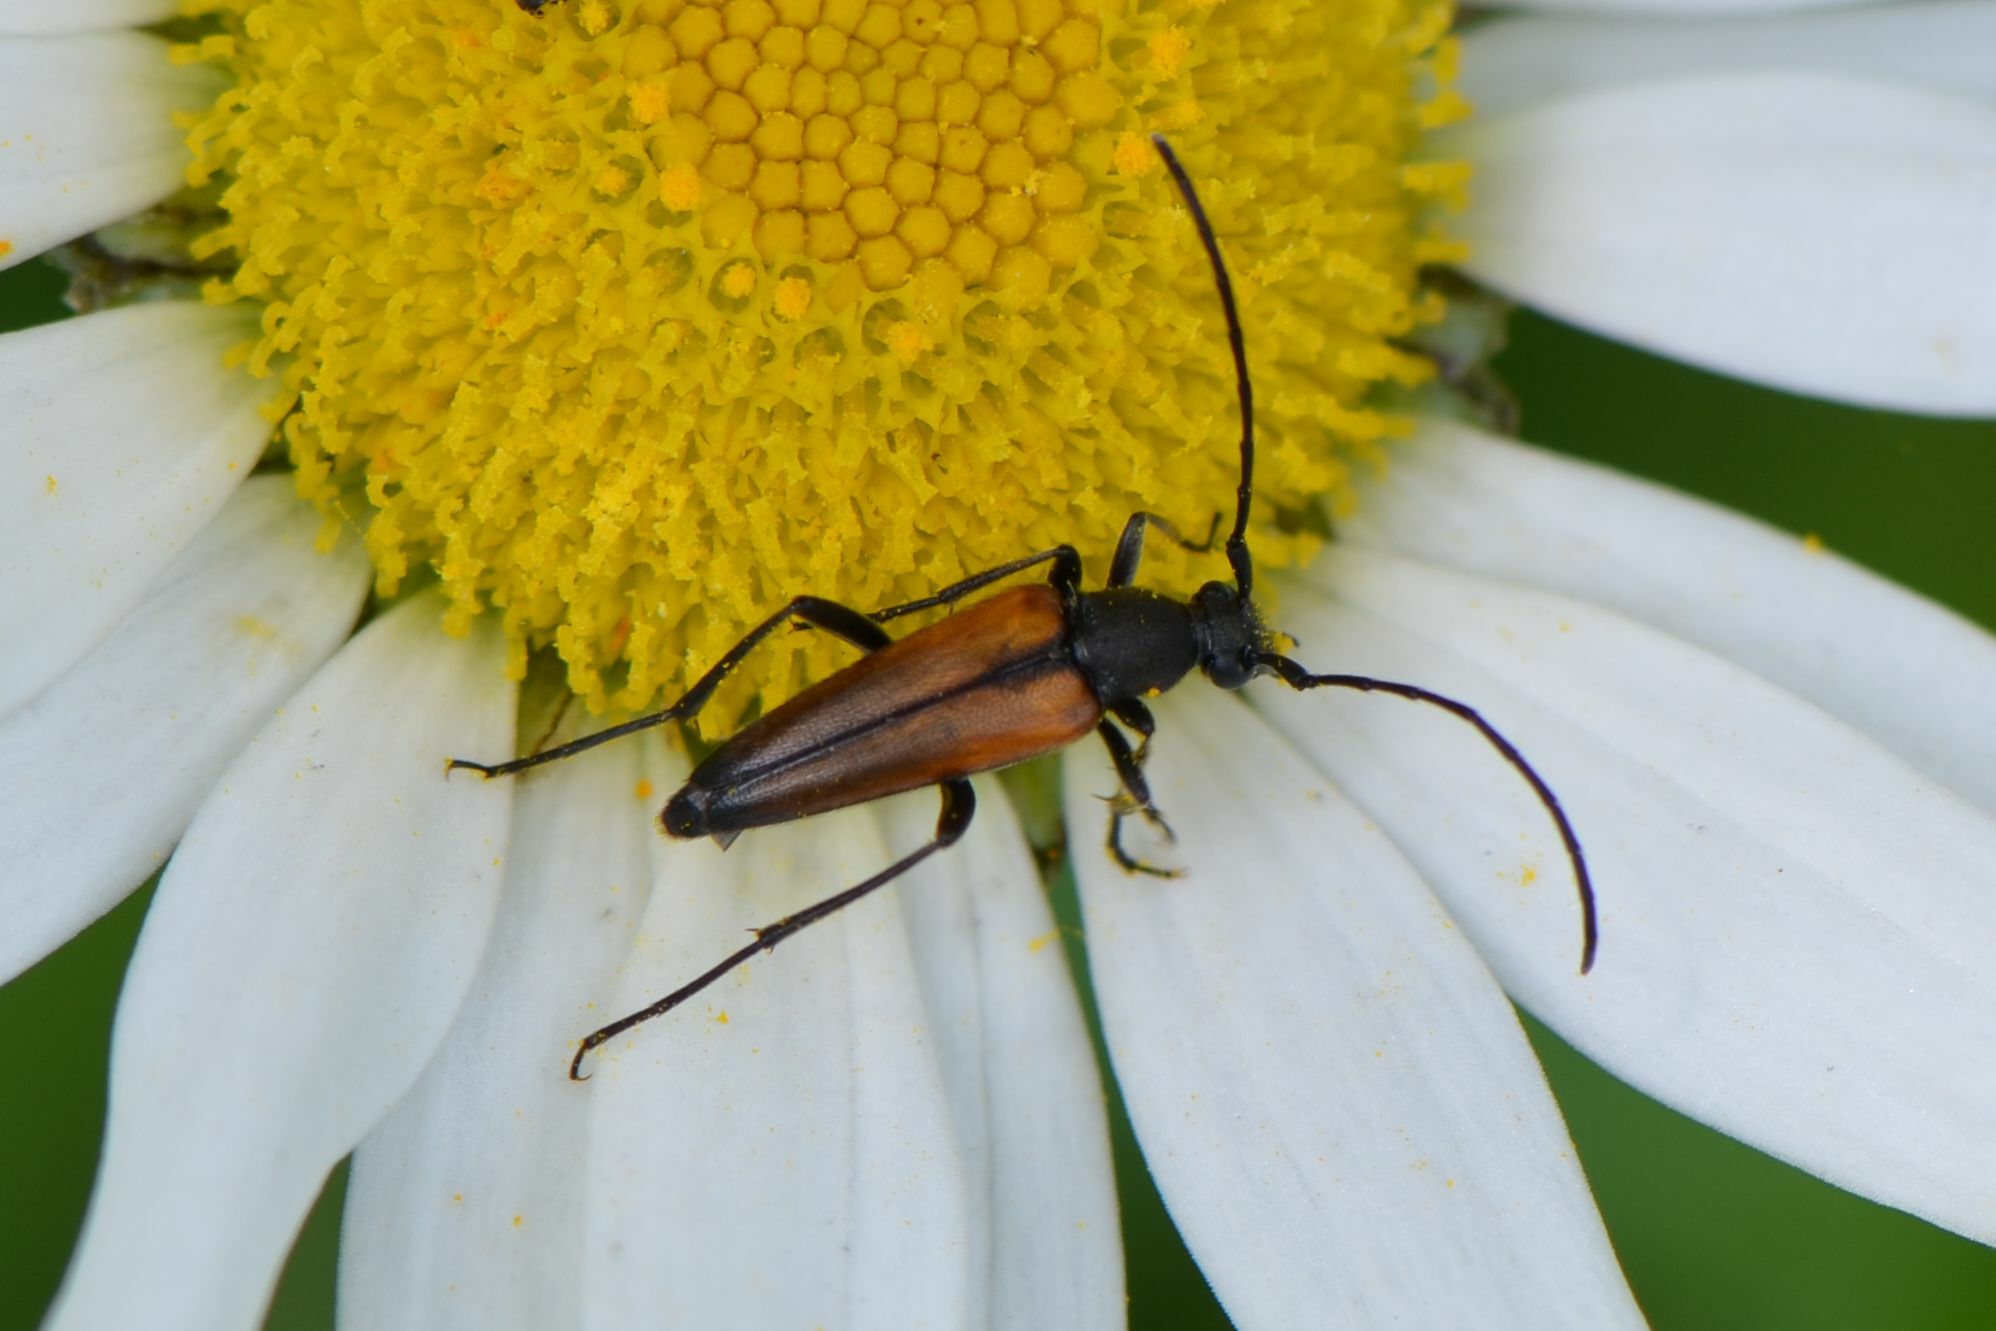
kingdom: Animalia
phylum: Arthropoda
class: Insecta
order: Coleoptera
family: Cerambycidae
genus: Stenurella
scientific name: Stenurella melanura
